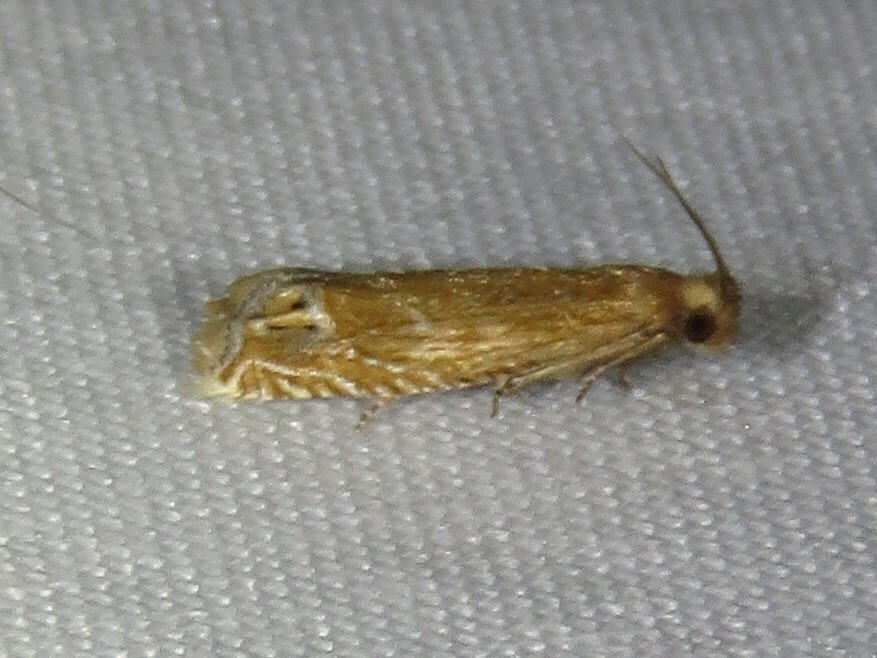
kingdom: Animalia
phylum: Arthropoda
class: Insecta
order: Lepidoptera
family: Tortricidae
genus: Pelochrista
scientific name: Pelochrista cataclystiana
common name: Goldenrod pelochrista moth
